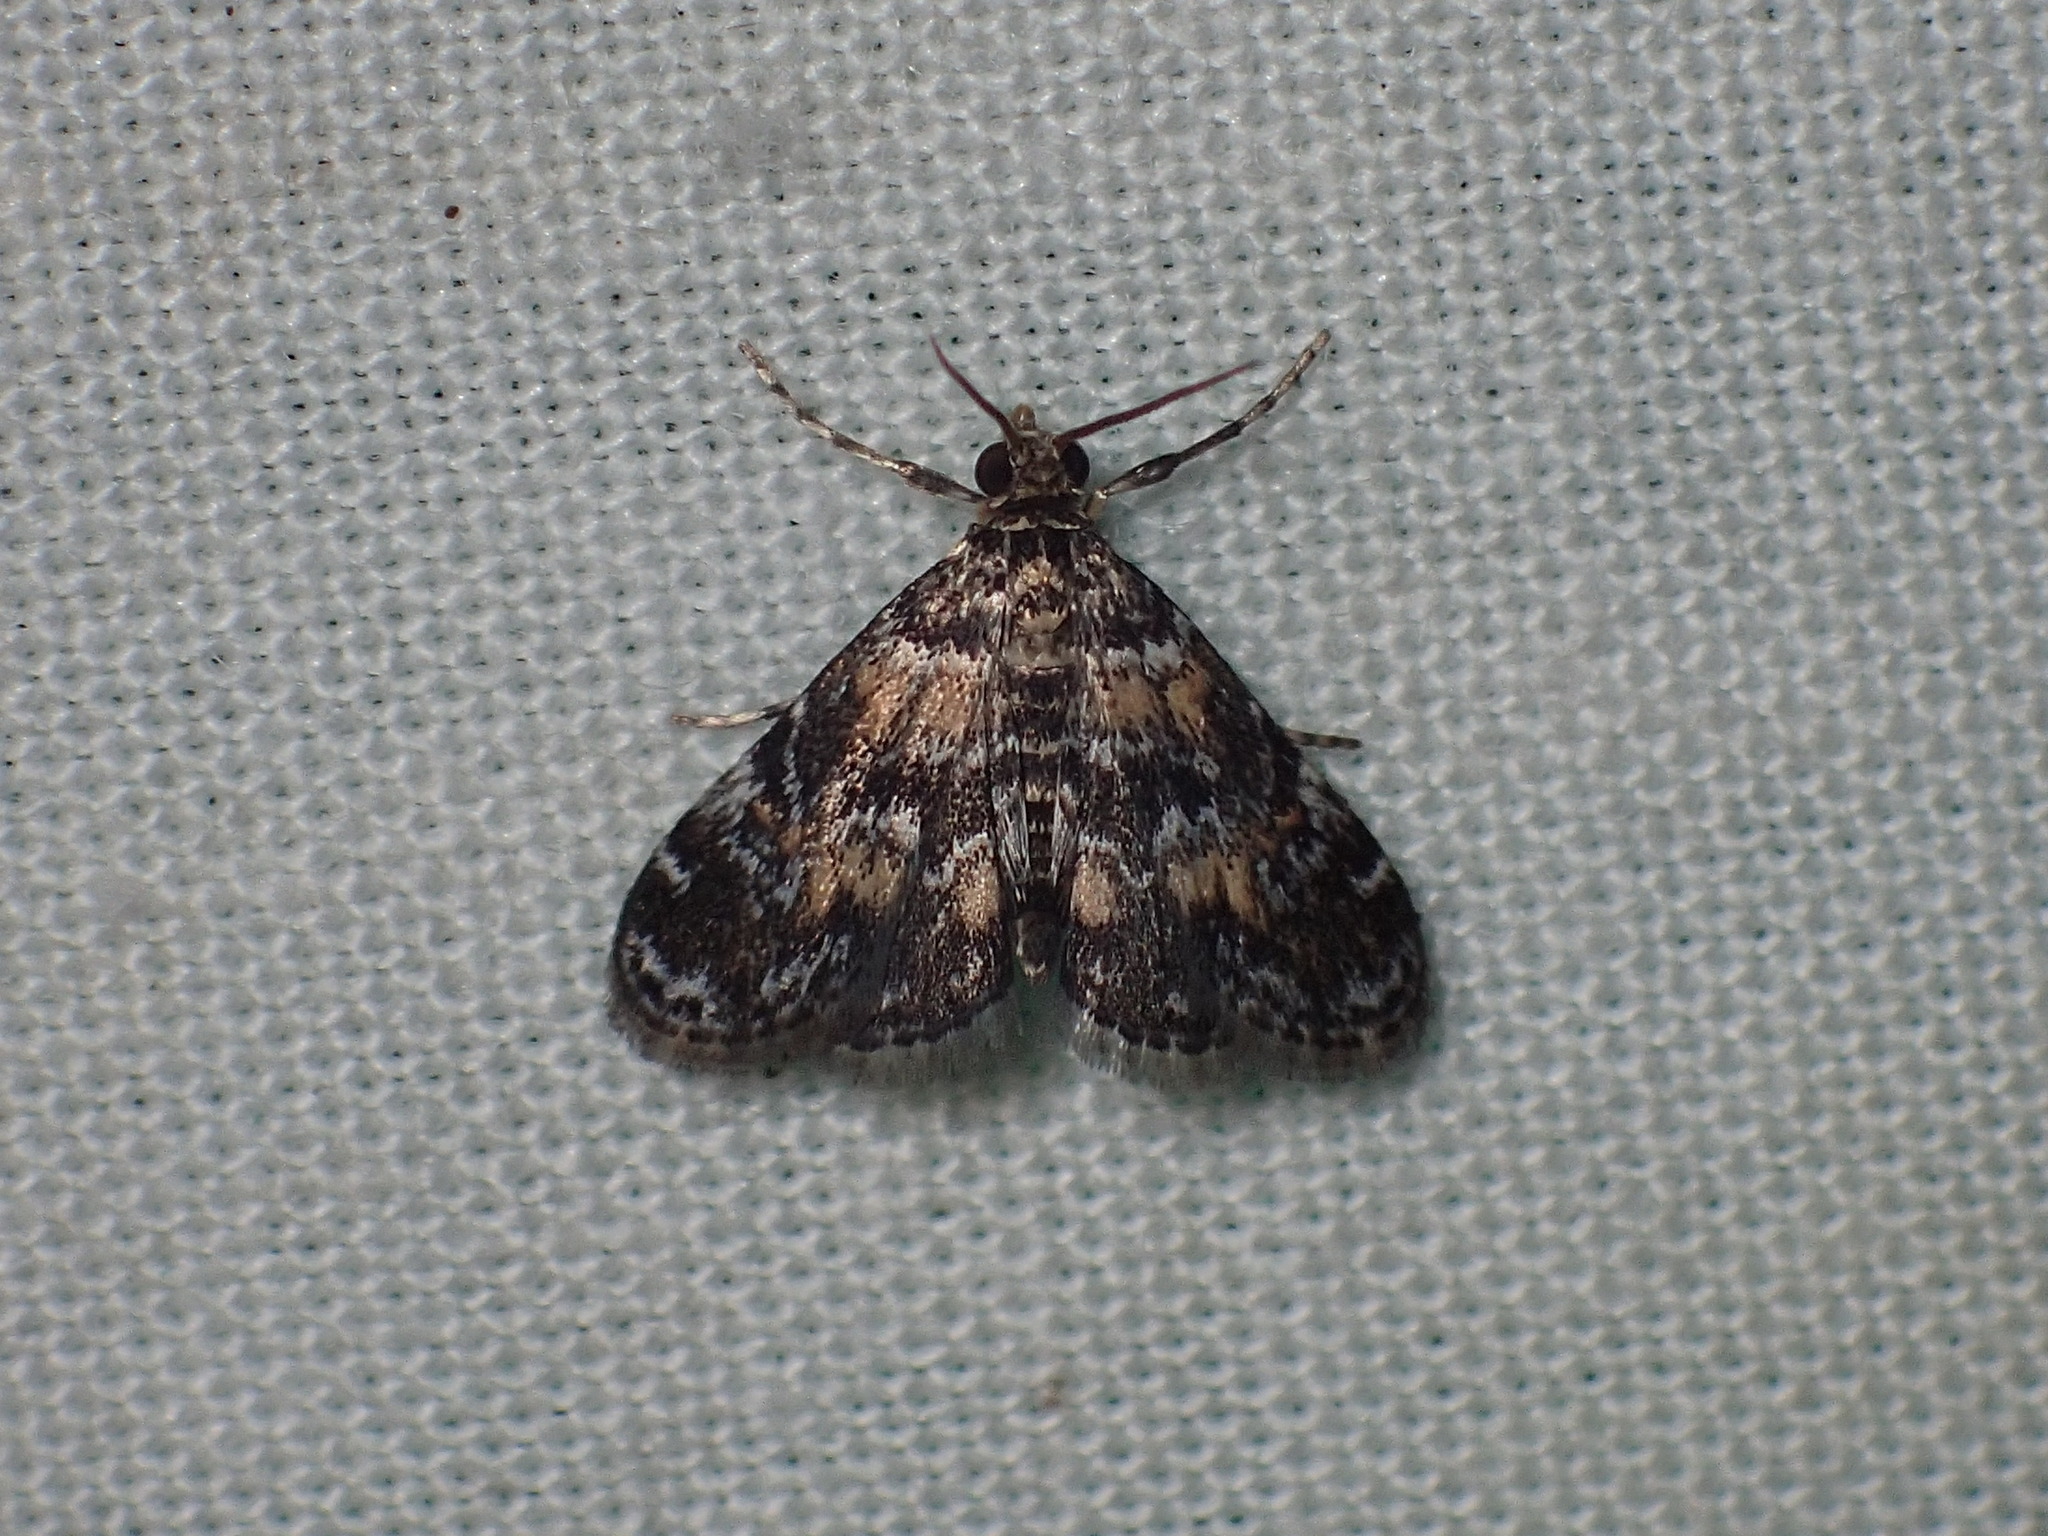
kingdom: Animalia
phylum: Arthropoda
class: Insecta
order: Lepidoptera
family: Crambidae
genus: Elophila
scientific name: Elophila obliteralis
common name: Waterlily leafcutter moth
